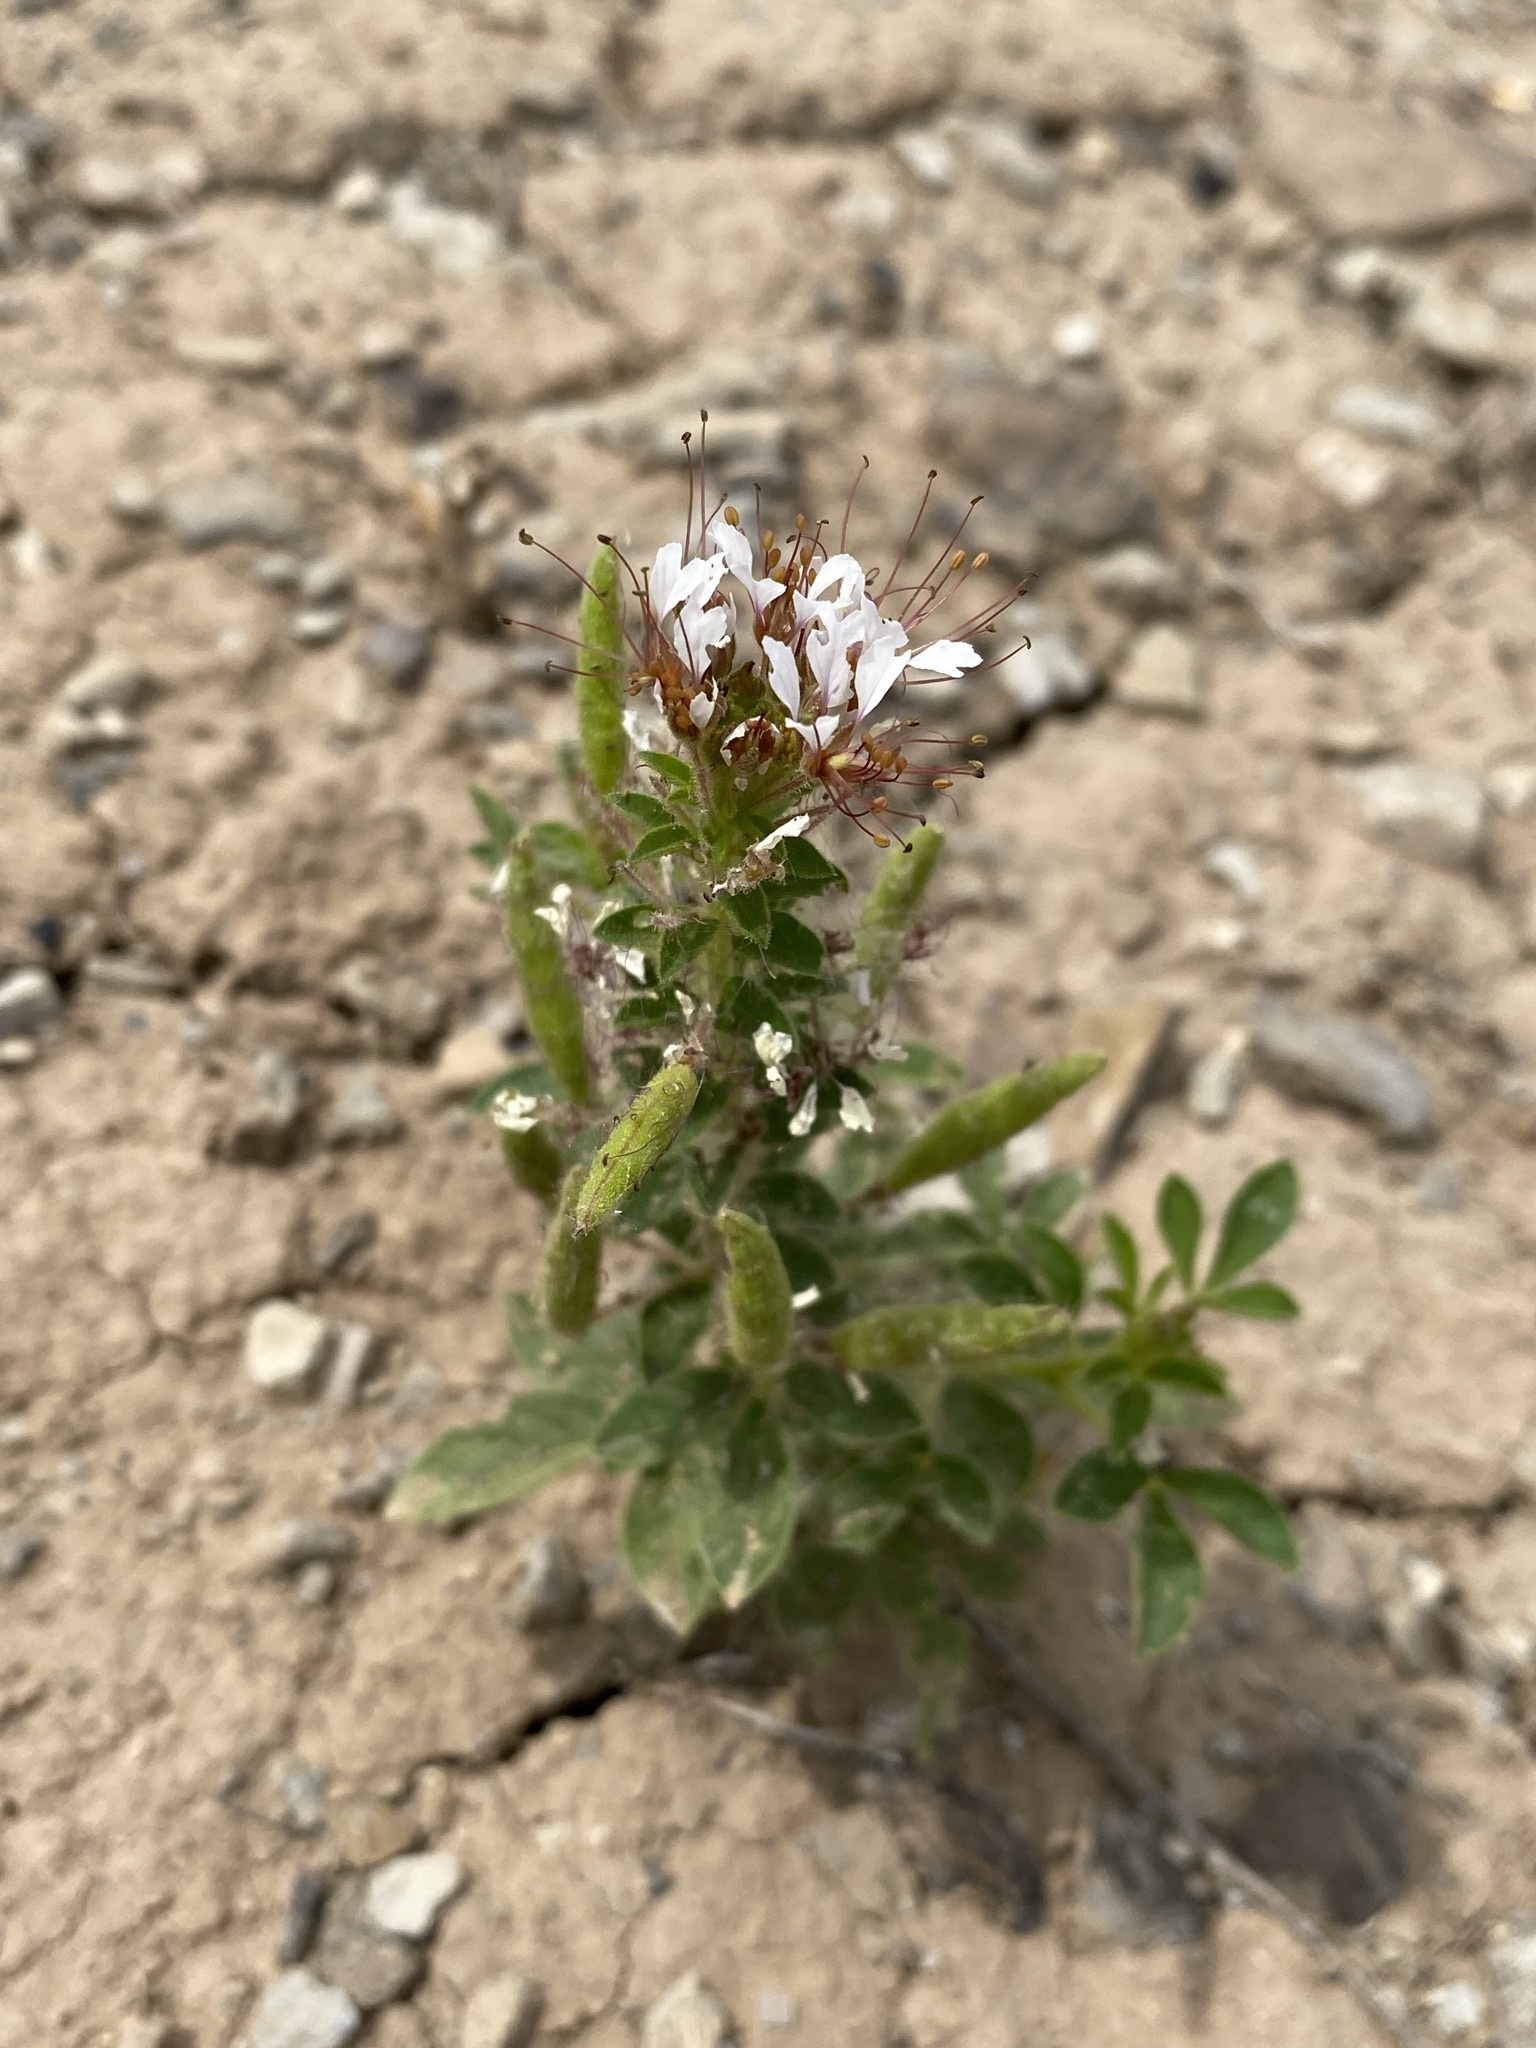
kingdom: Plantae
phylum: Tracheophyta
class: Magnoliopsida
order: Brassicales
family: Cleomaceae
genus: Polanisia
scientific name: Polanisia dodecandra
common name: Clammyweed
